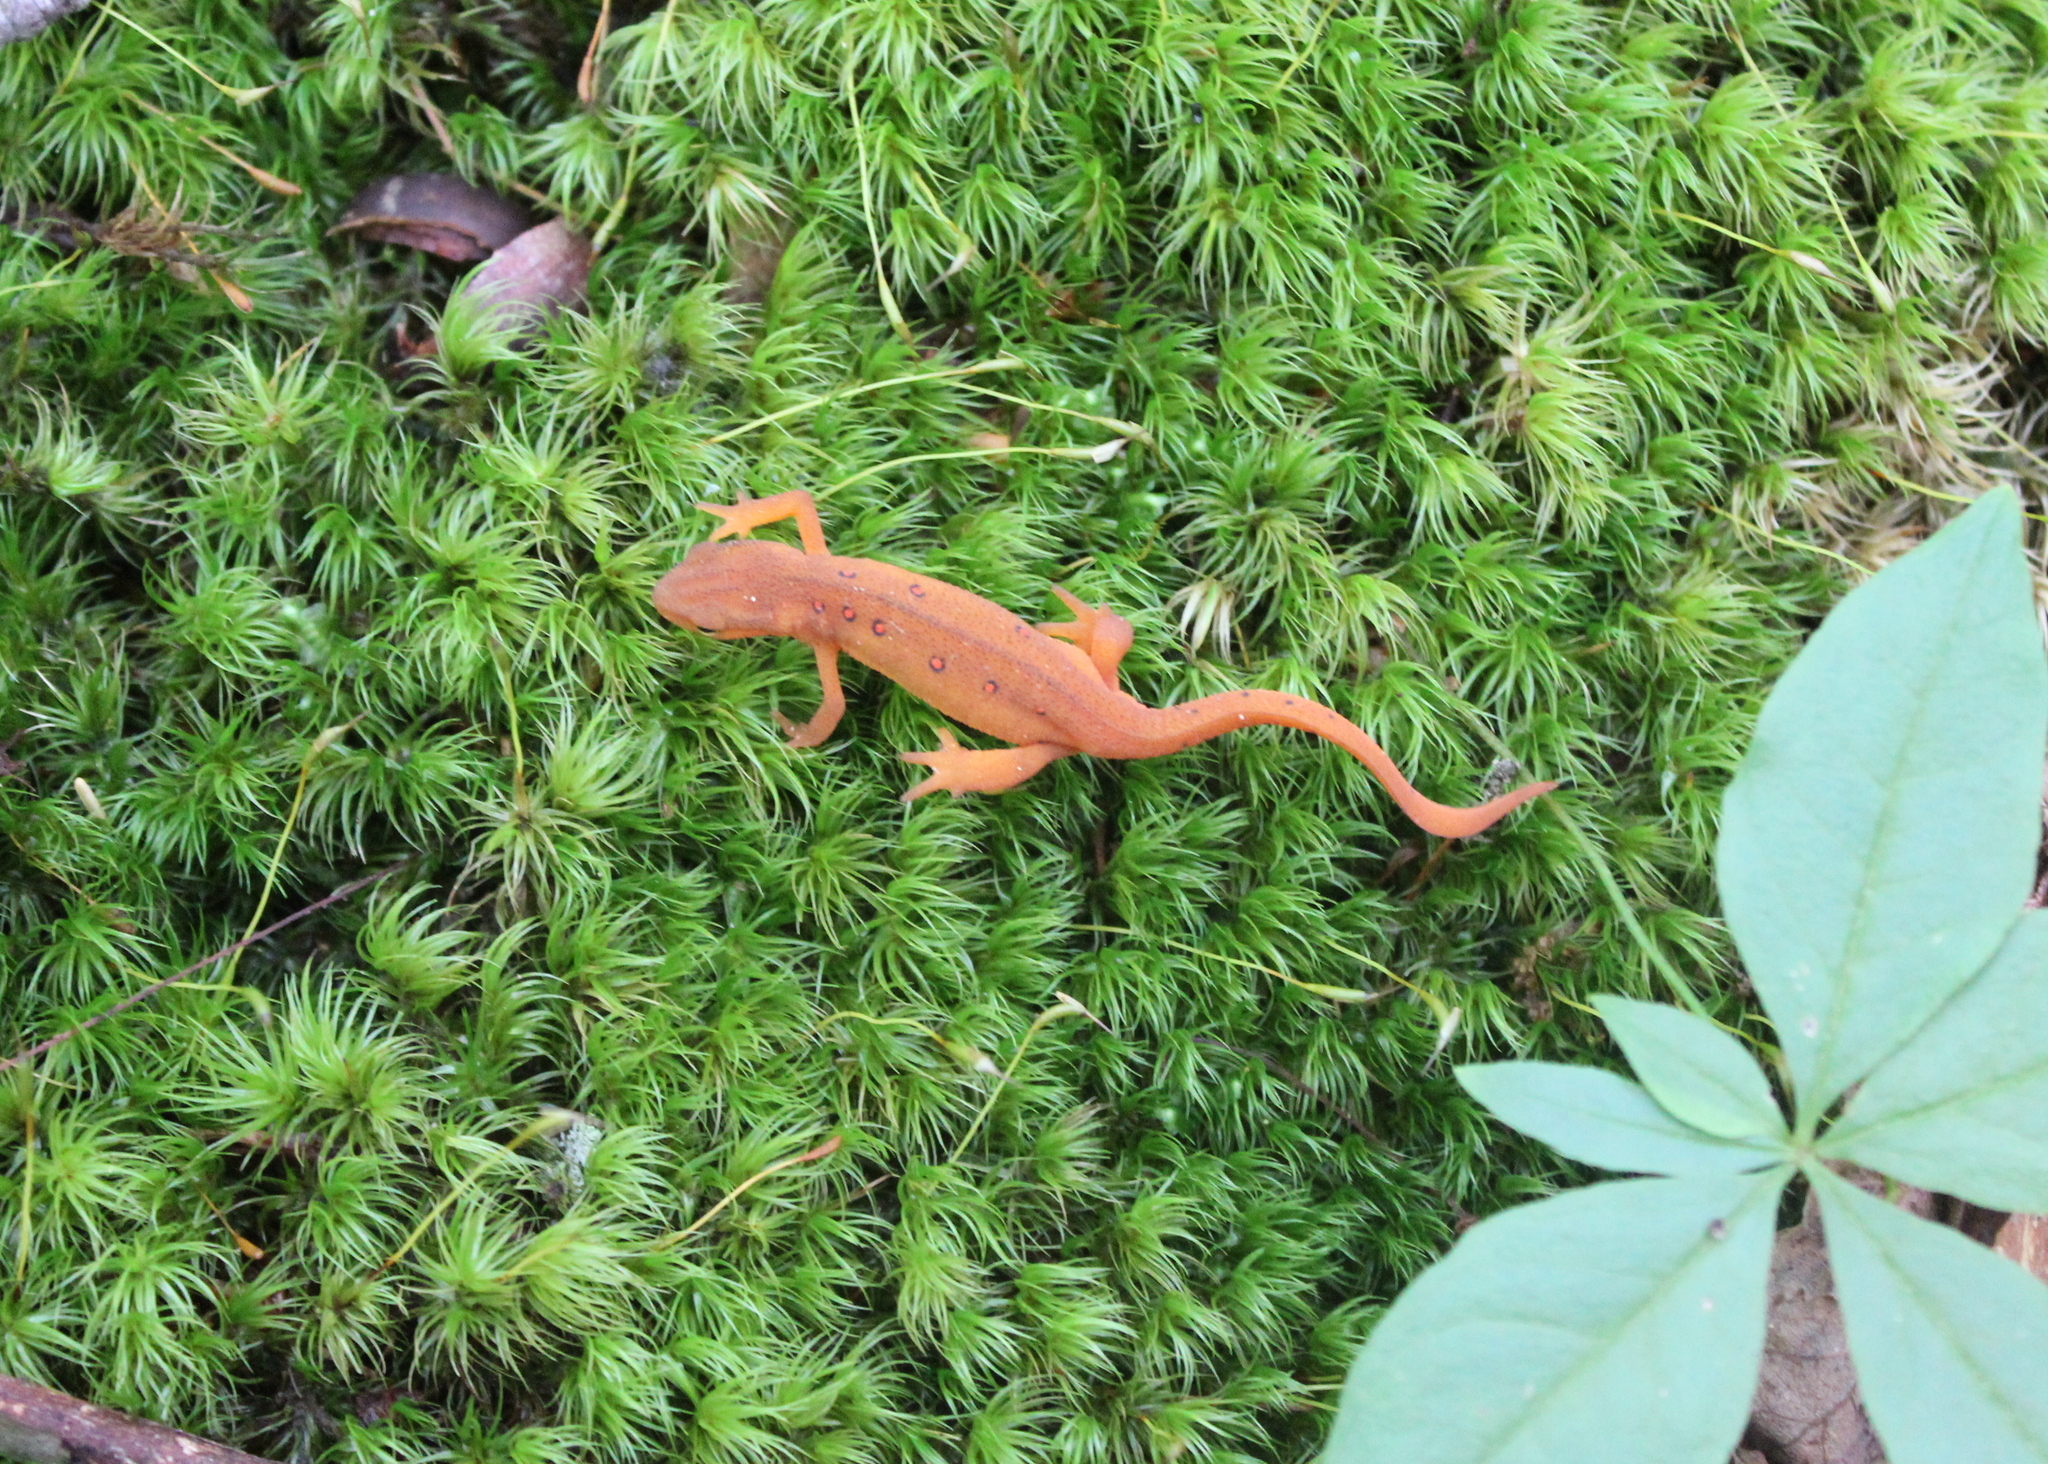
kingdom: Animalia
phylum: Chordata
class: Amphibia
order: Caudata
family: Salamandridae
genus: Notophthalmus
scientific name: Notophthalmus viridescens
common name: Eastern newt
